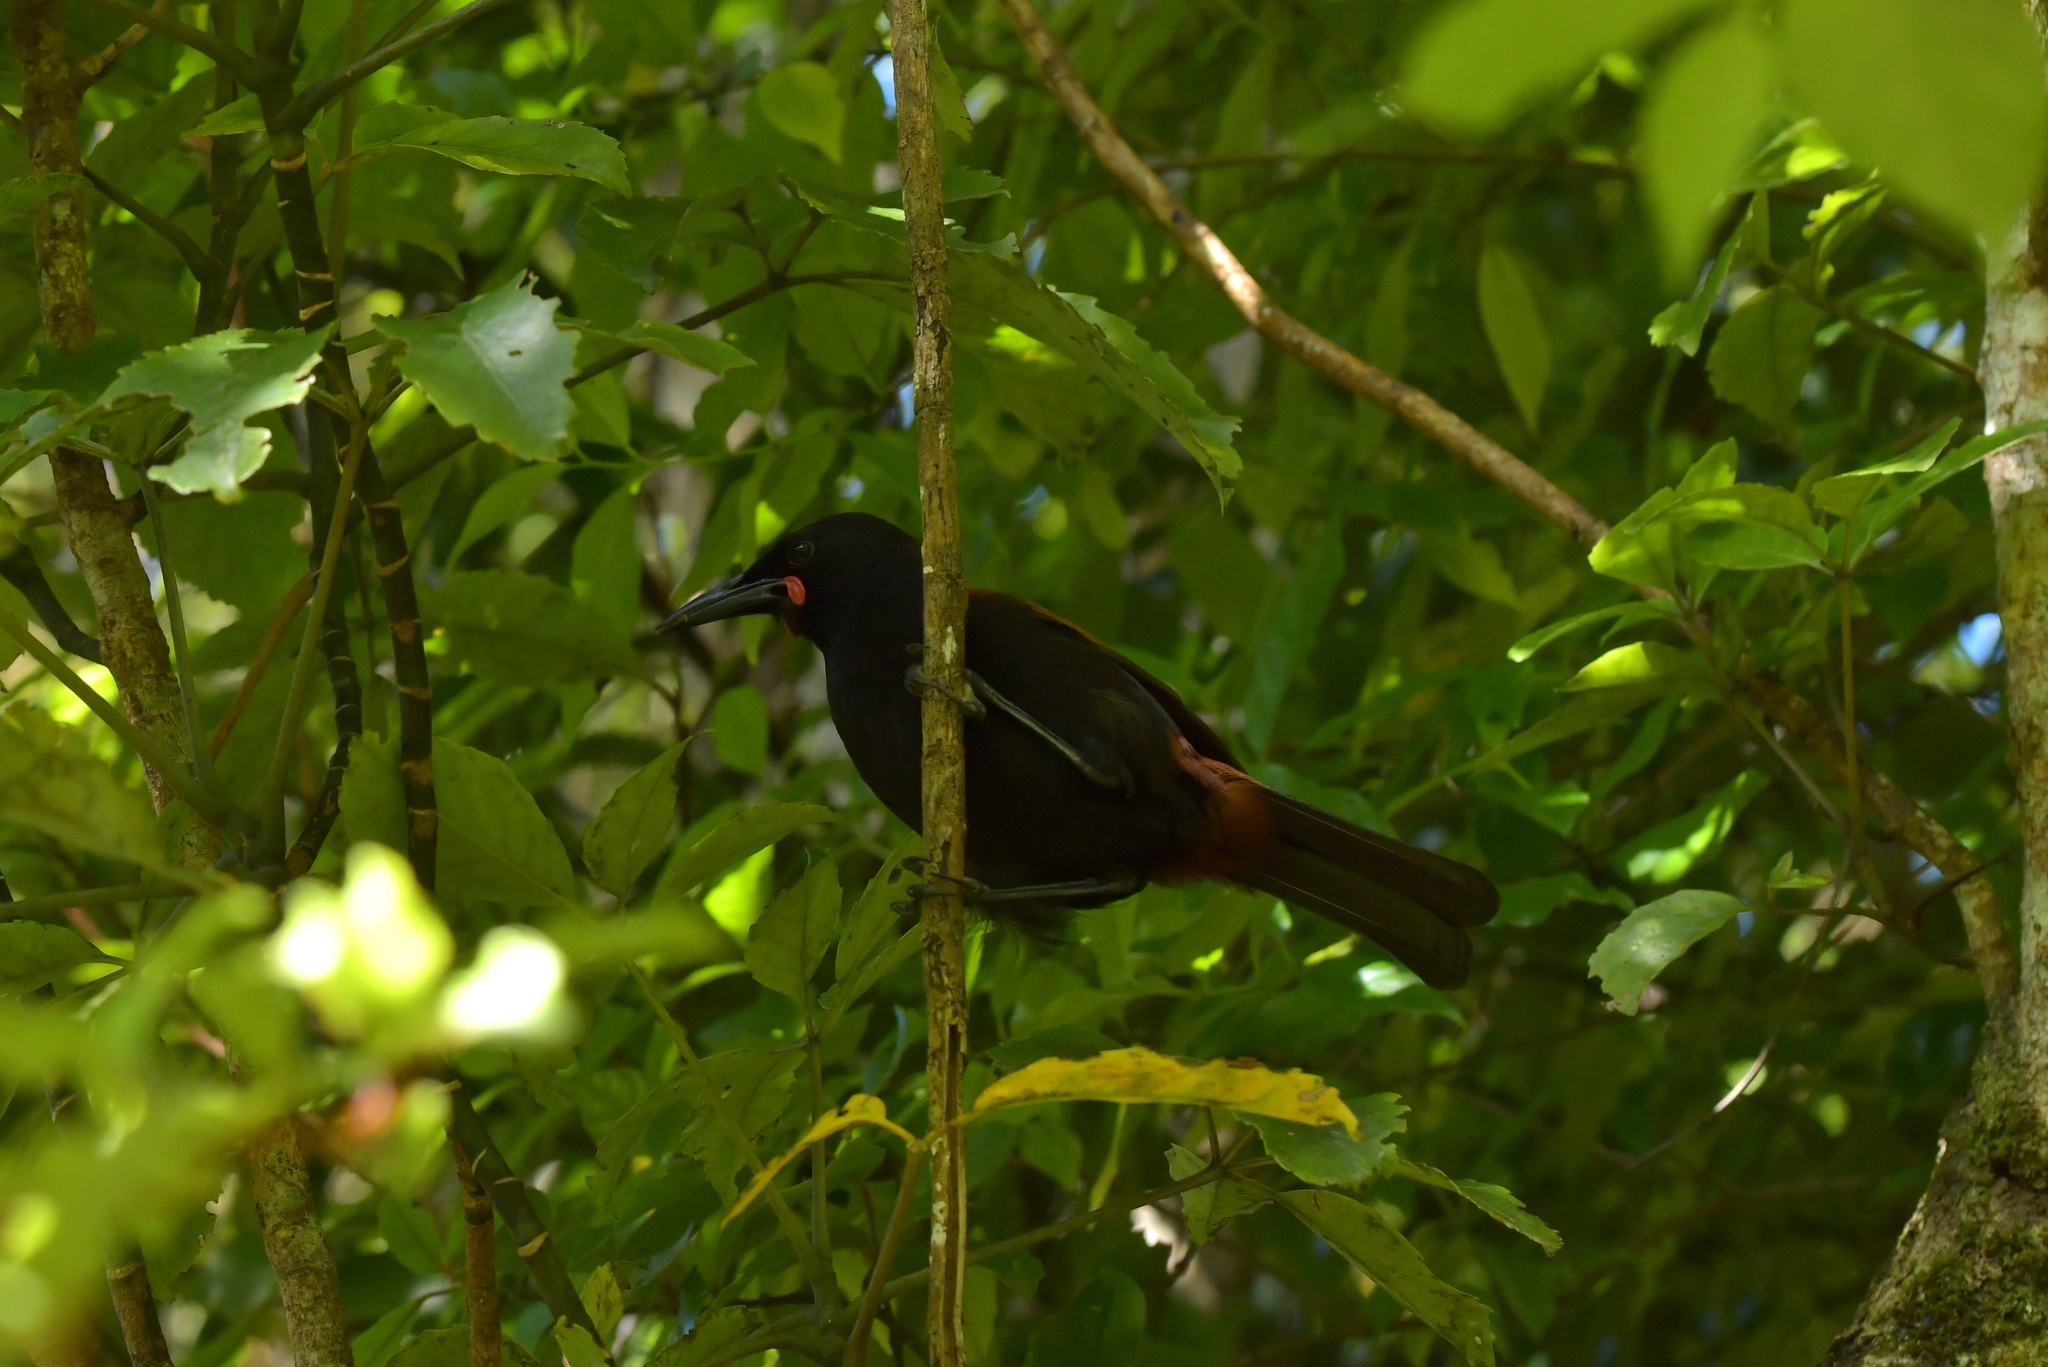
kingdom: Animalia
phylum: Chordata
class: Aves
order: Passeriformes
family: Callaeatidae
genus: Philesturnus
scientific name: Philesturnus carunculatus
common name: South island saddleback
